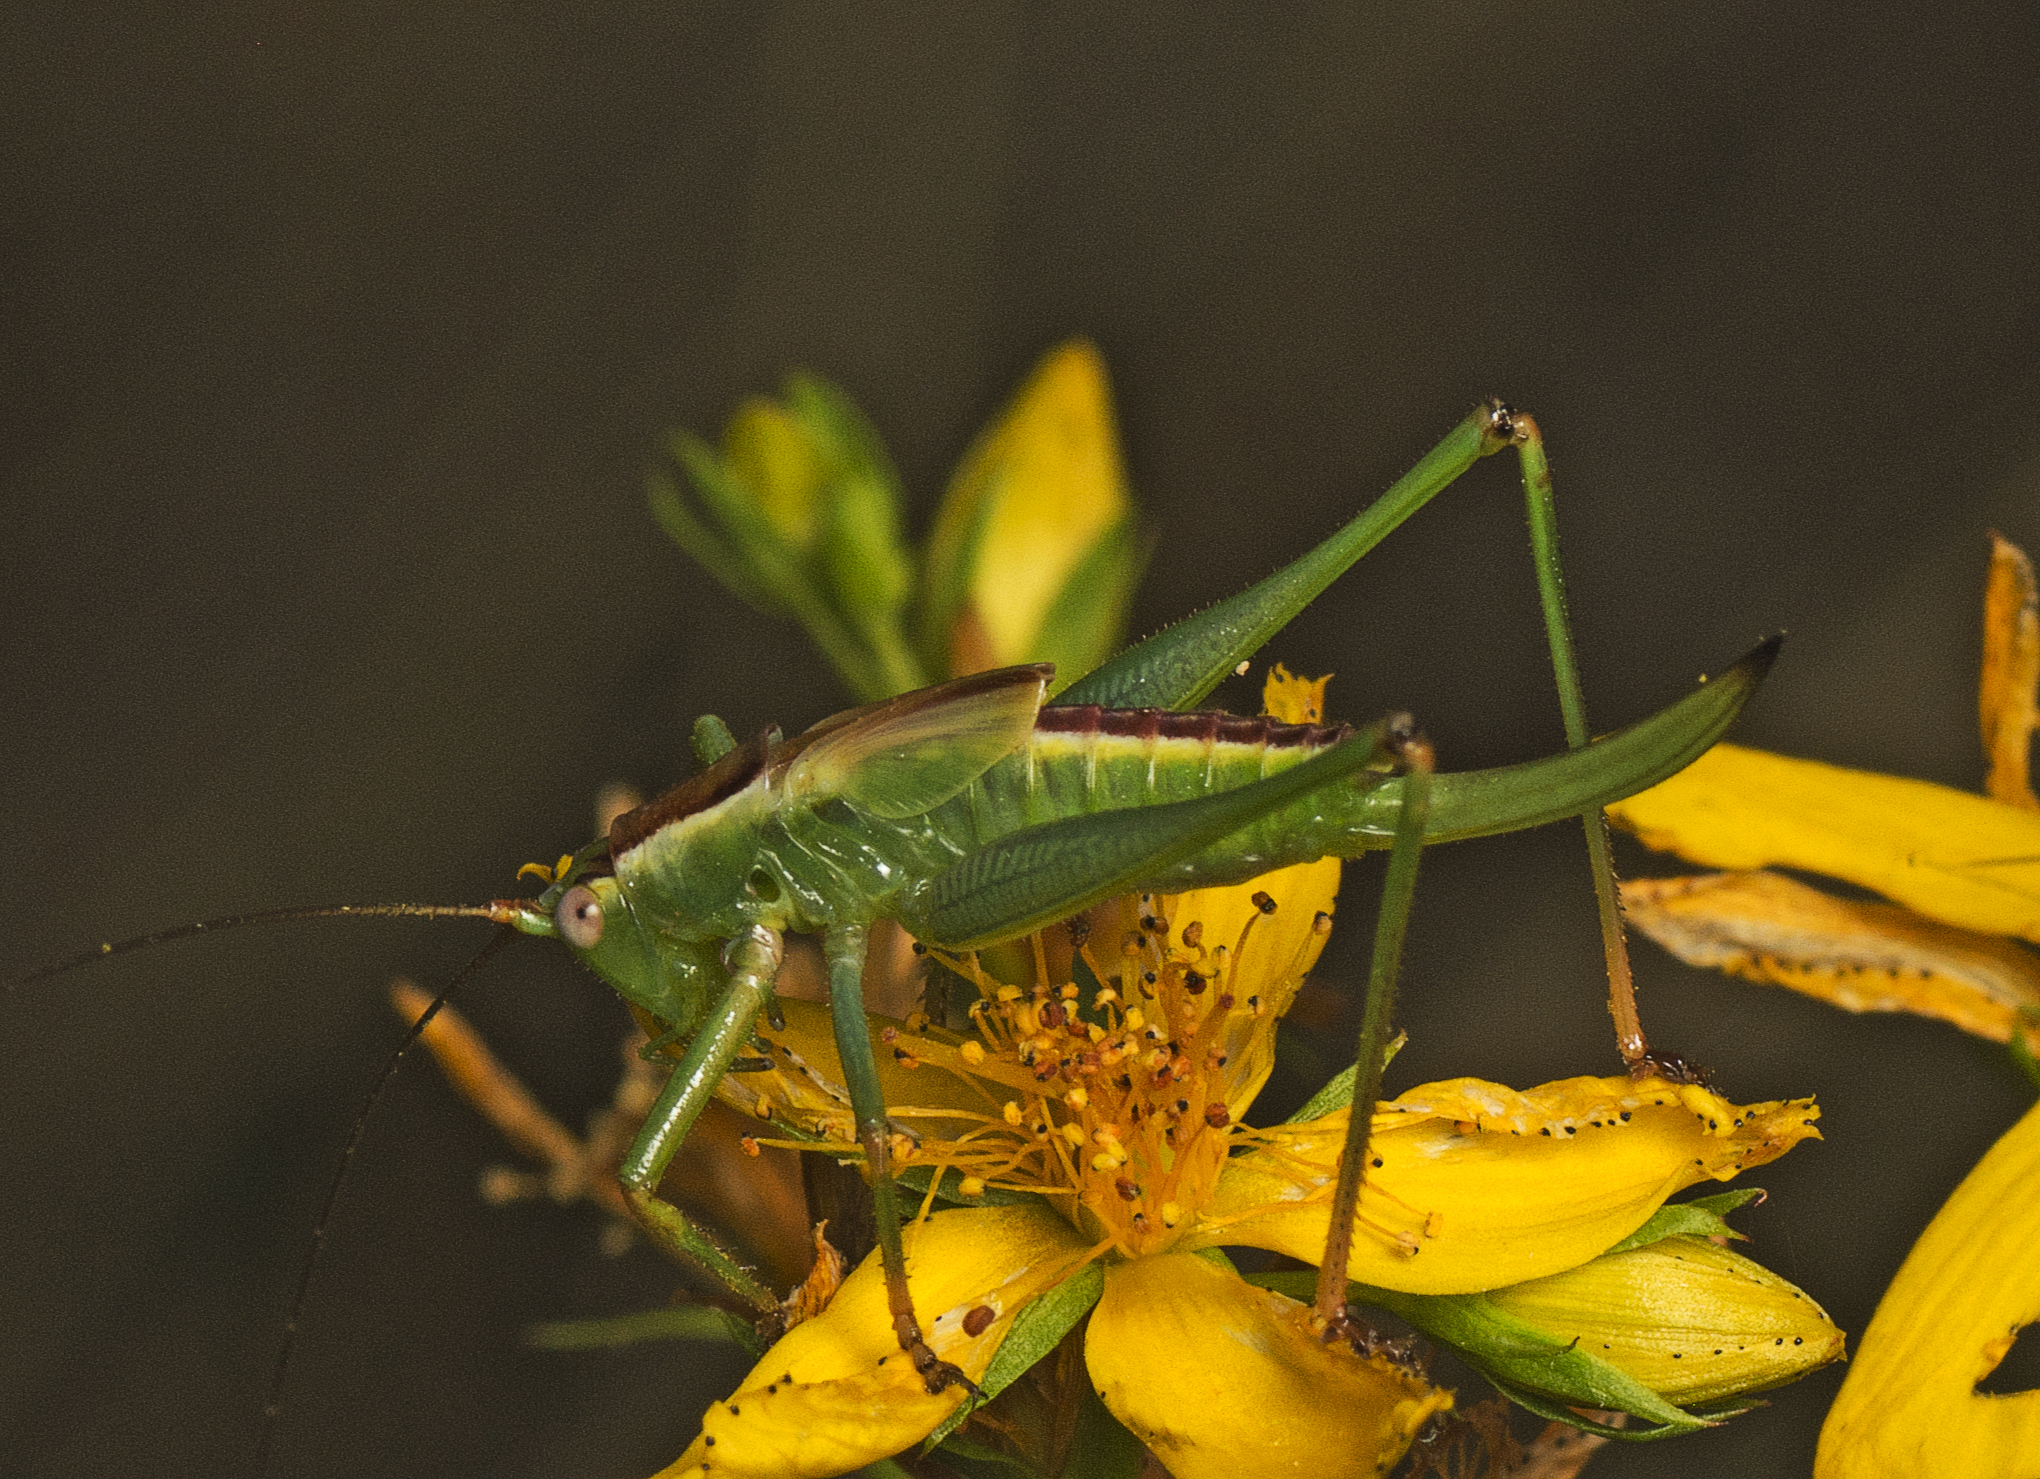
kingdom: Animalia
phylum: Arthropoda
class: Insecta
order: Orthoptera
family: Tettigoniidae
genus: Conocephalomima
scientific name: Conocephalomima barameda
